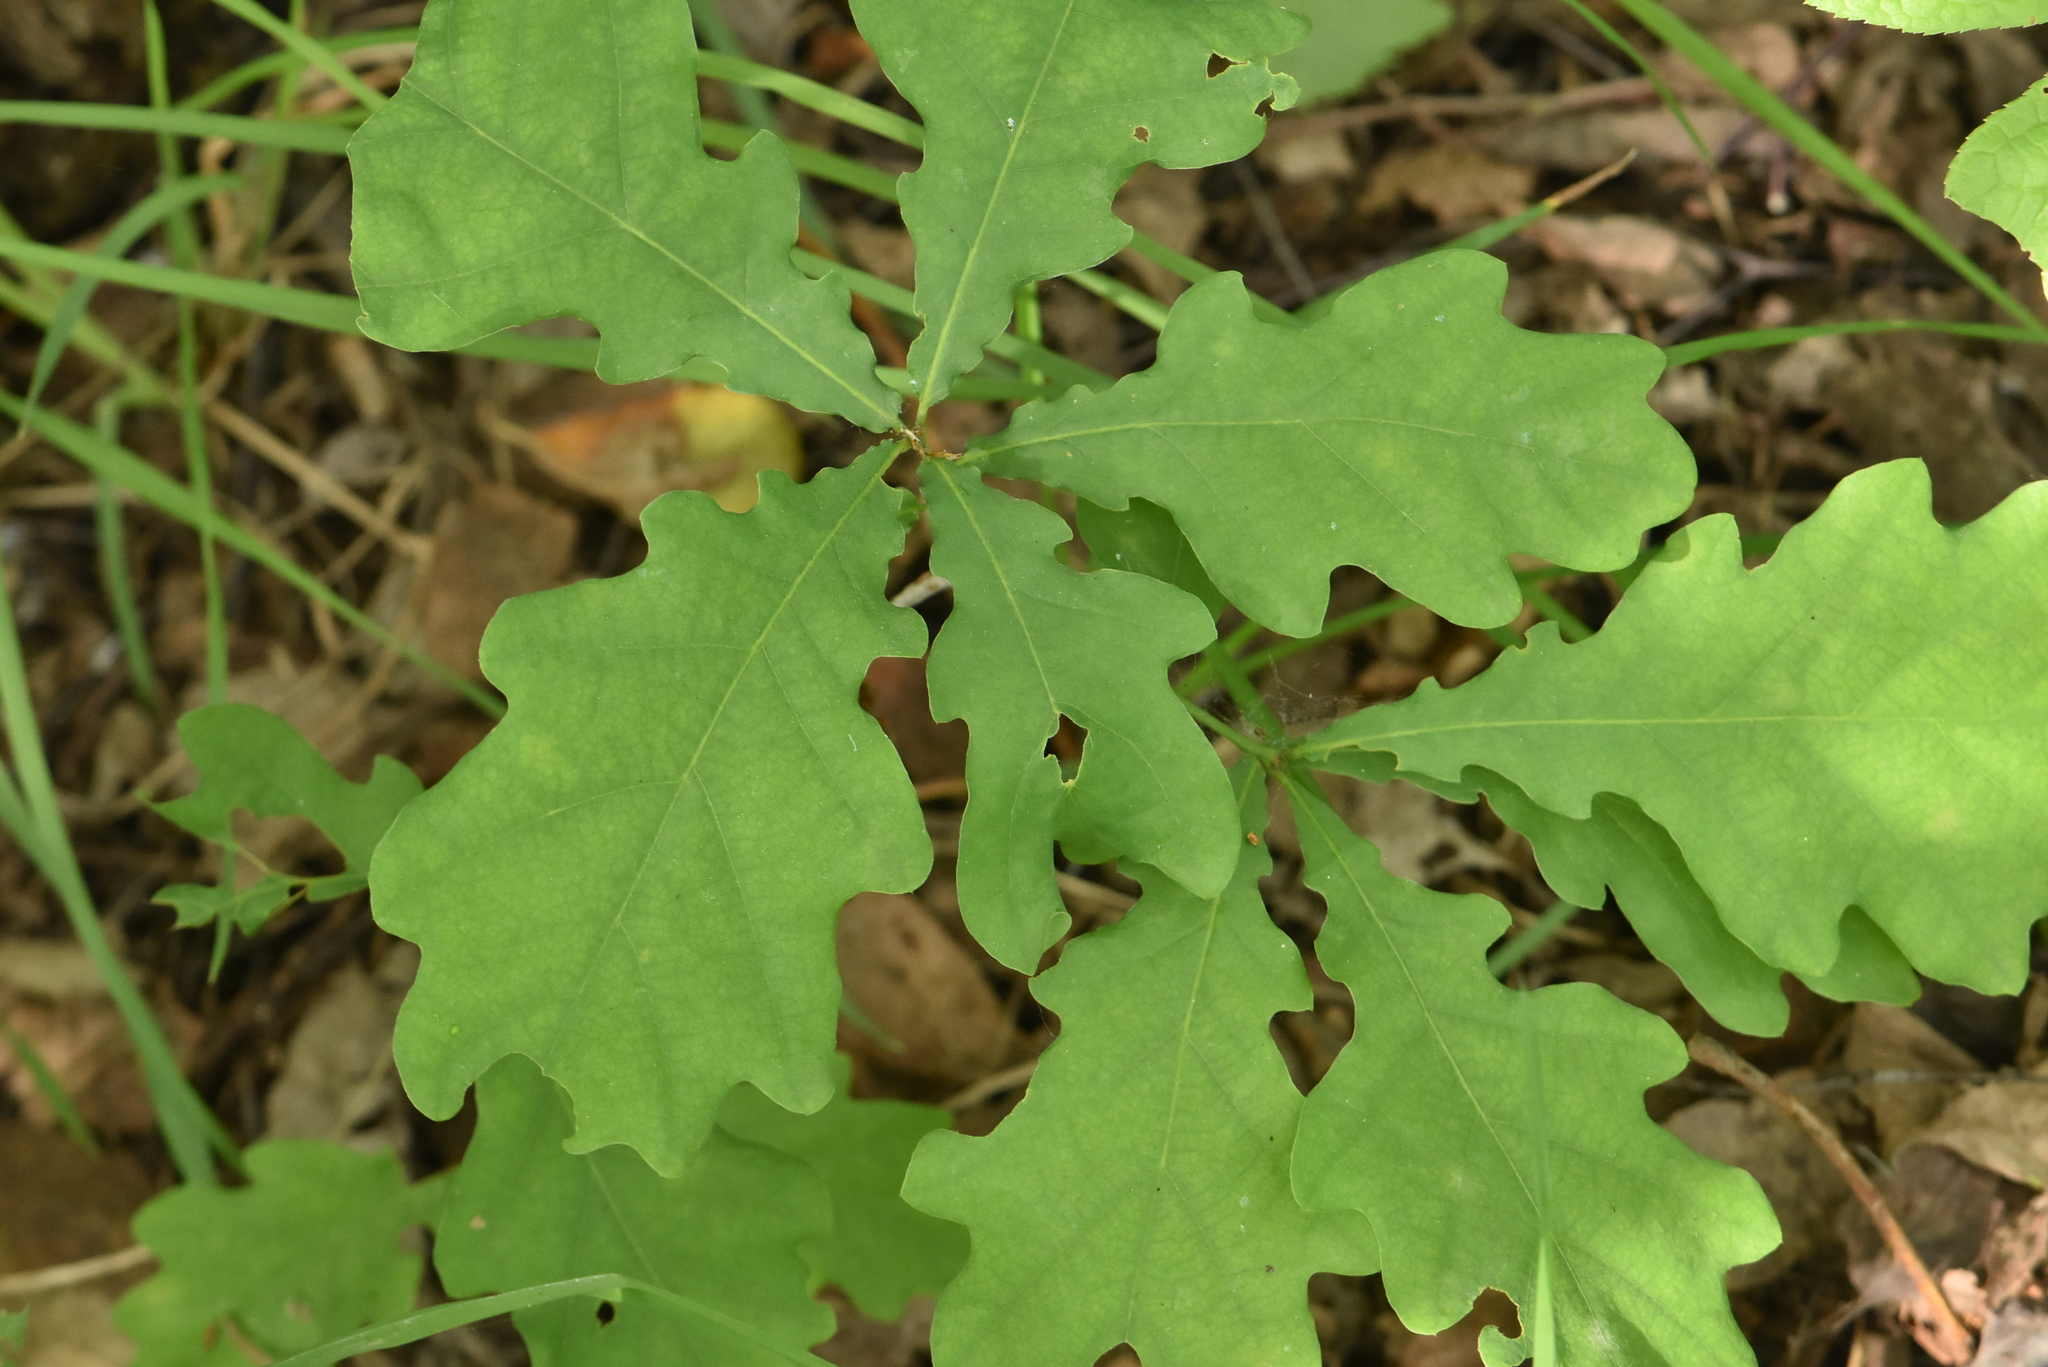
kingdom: Plantae
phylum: Tracheophyta
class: Magnoliopsida
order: Fagales
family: Fagaceae
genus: Quercus
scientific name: Quercus robur
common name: Pedunculate oak
